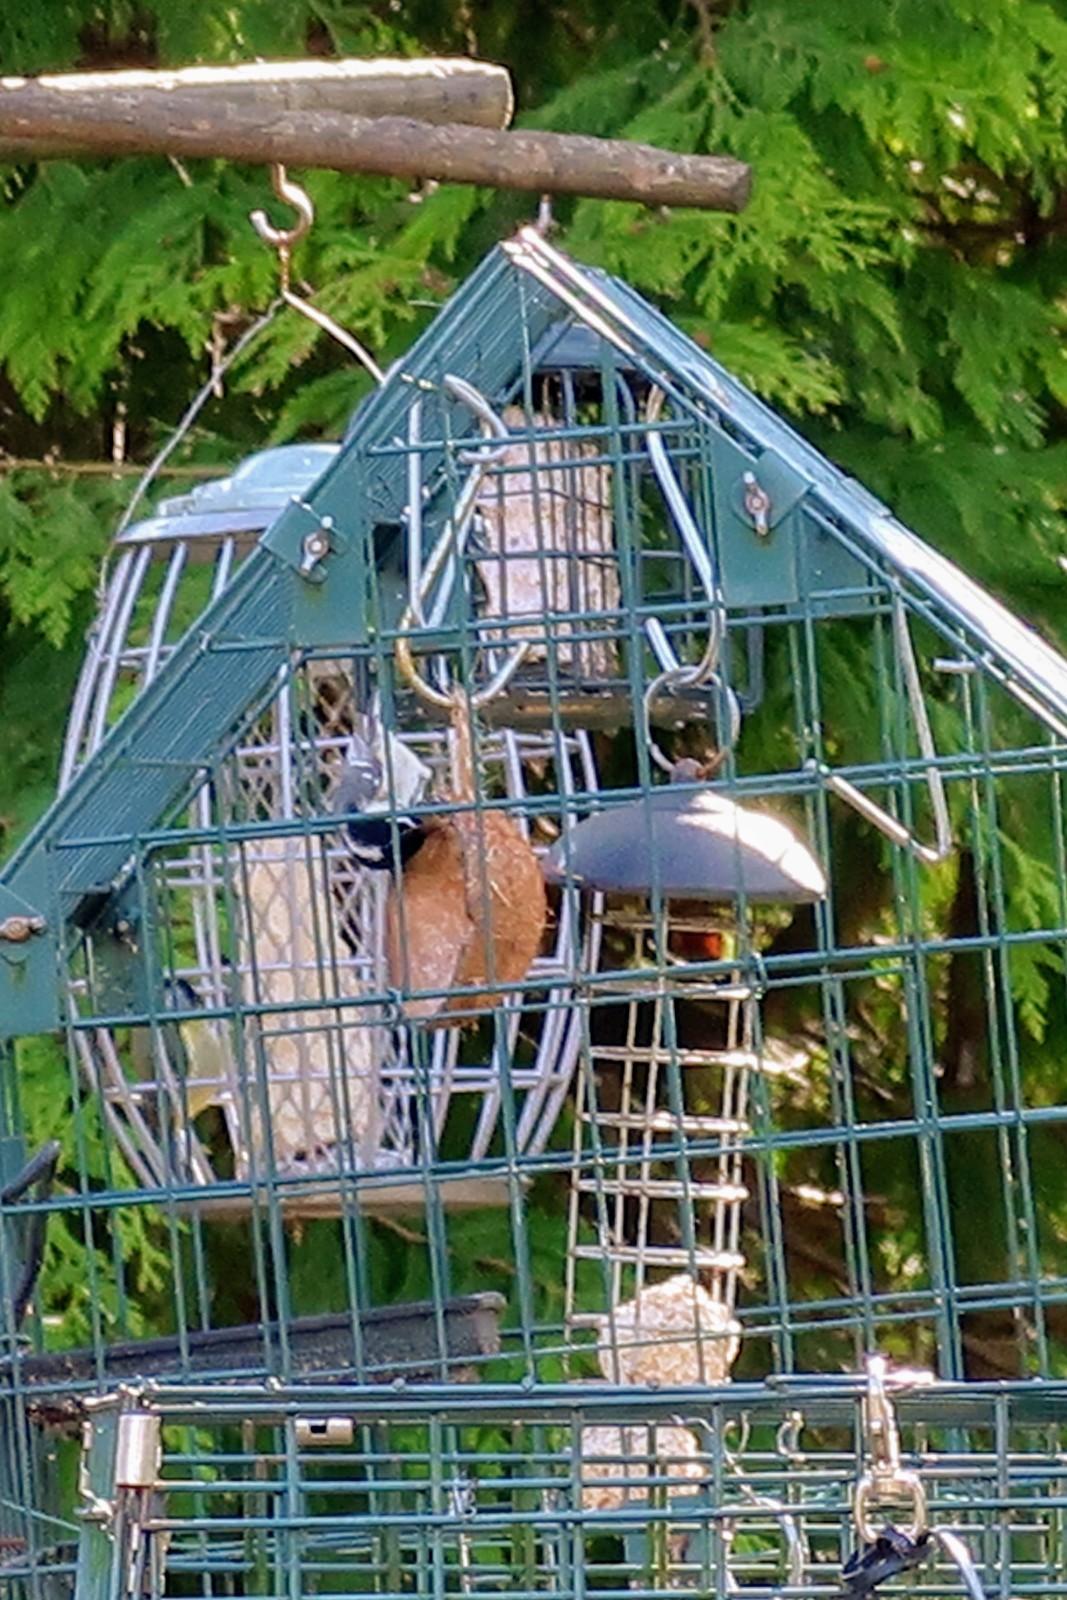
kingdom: Animalia
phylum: Chordata
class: Aves
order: Passeriformes
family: Paridae
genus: Periparus
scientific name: Periparus ater
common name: Coal tit
